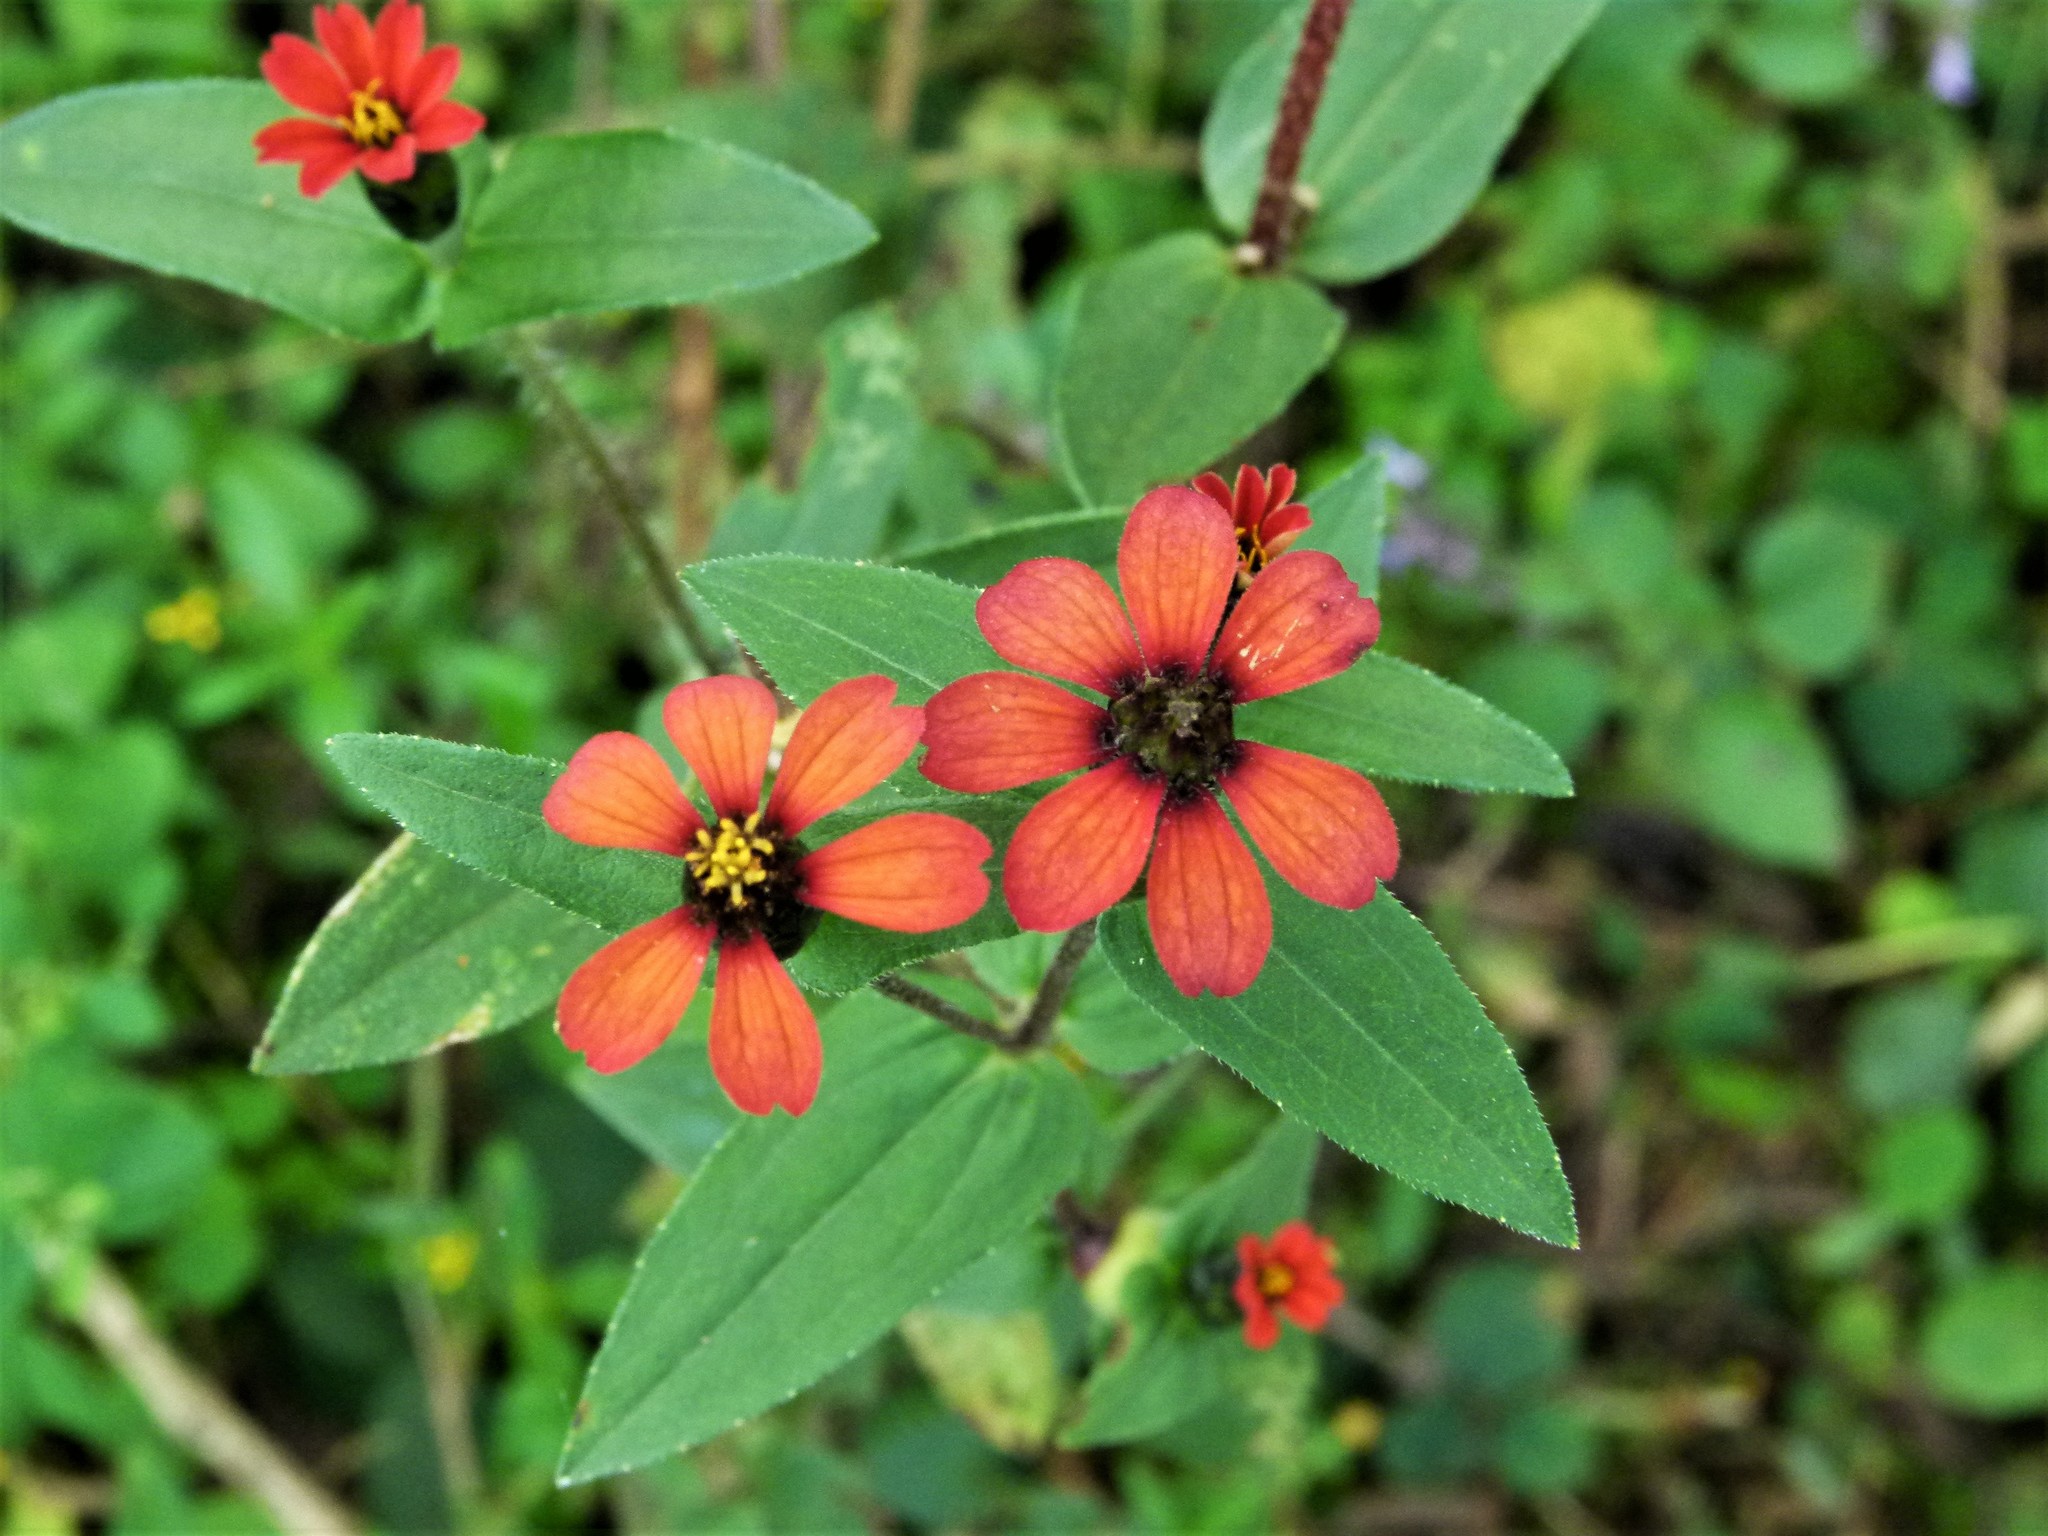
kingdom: Plantae
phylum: Tracheophyta
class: Magnoliopsida
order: Asterales
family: Asteraceae
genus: Zinnia
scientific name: Zinnia peruviana
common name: Peruvian zinnia
